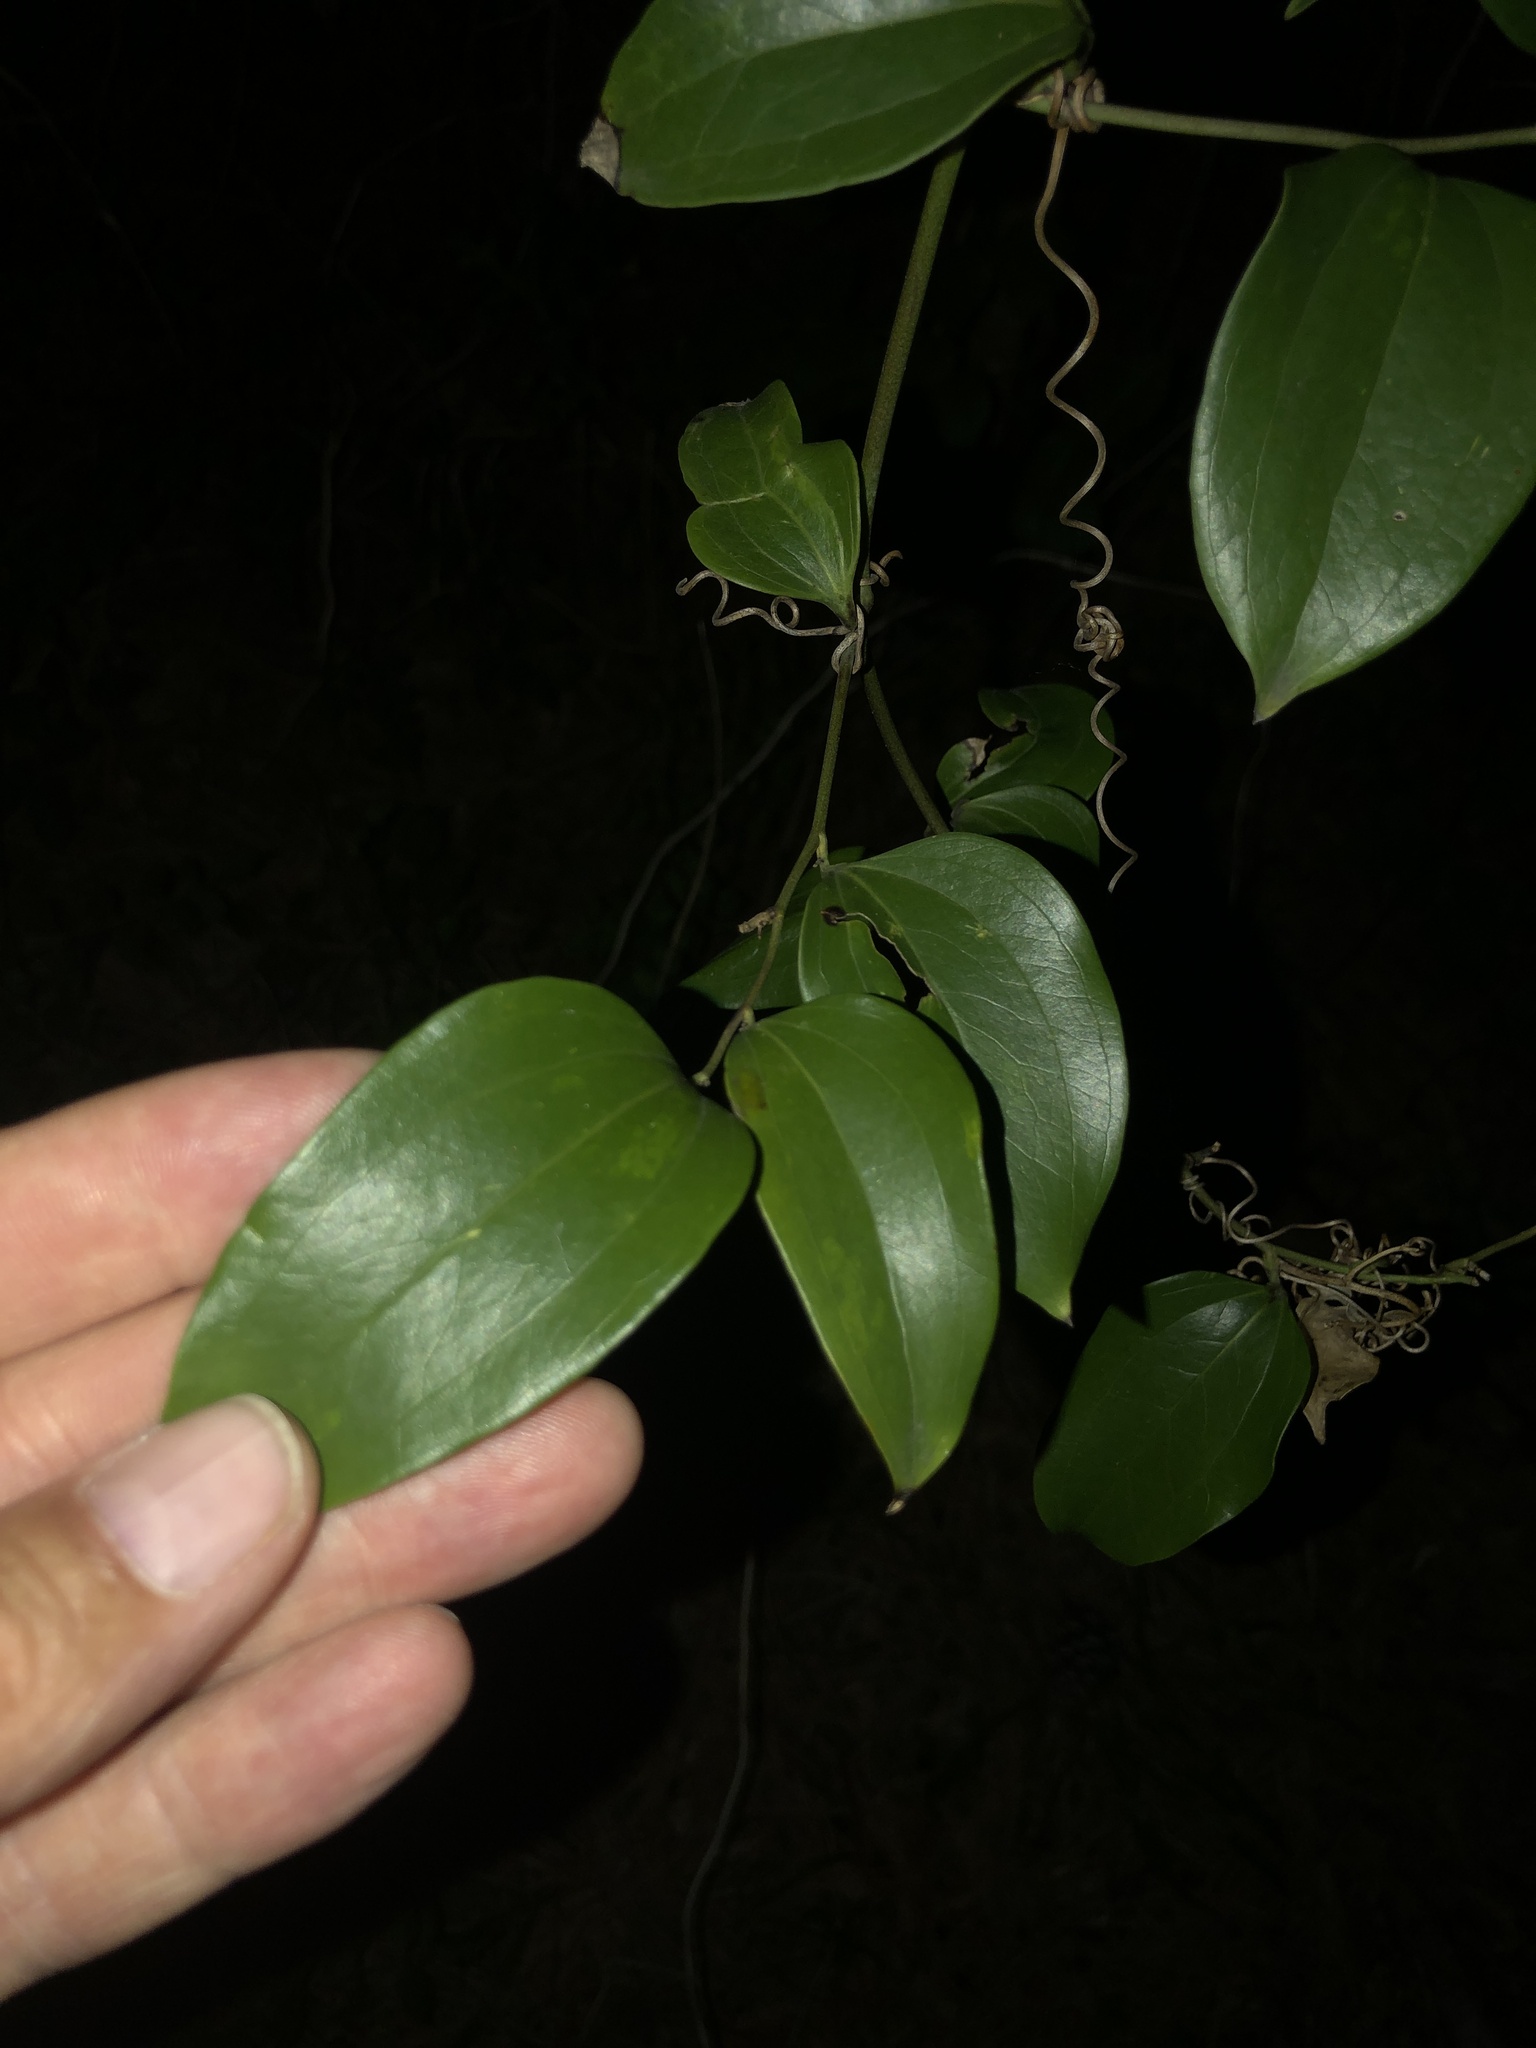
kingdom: Plantae
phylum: Tracheophyta
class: Liliopsida
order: Liliales
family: Smilacaceae
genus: Smilax
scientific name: Smilax maritima
